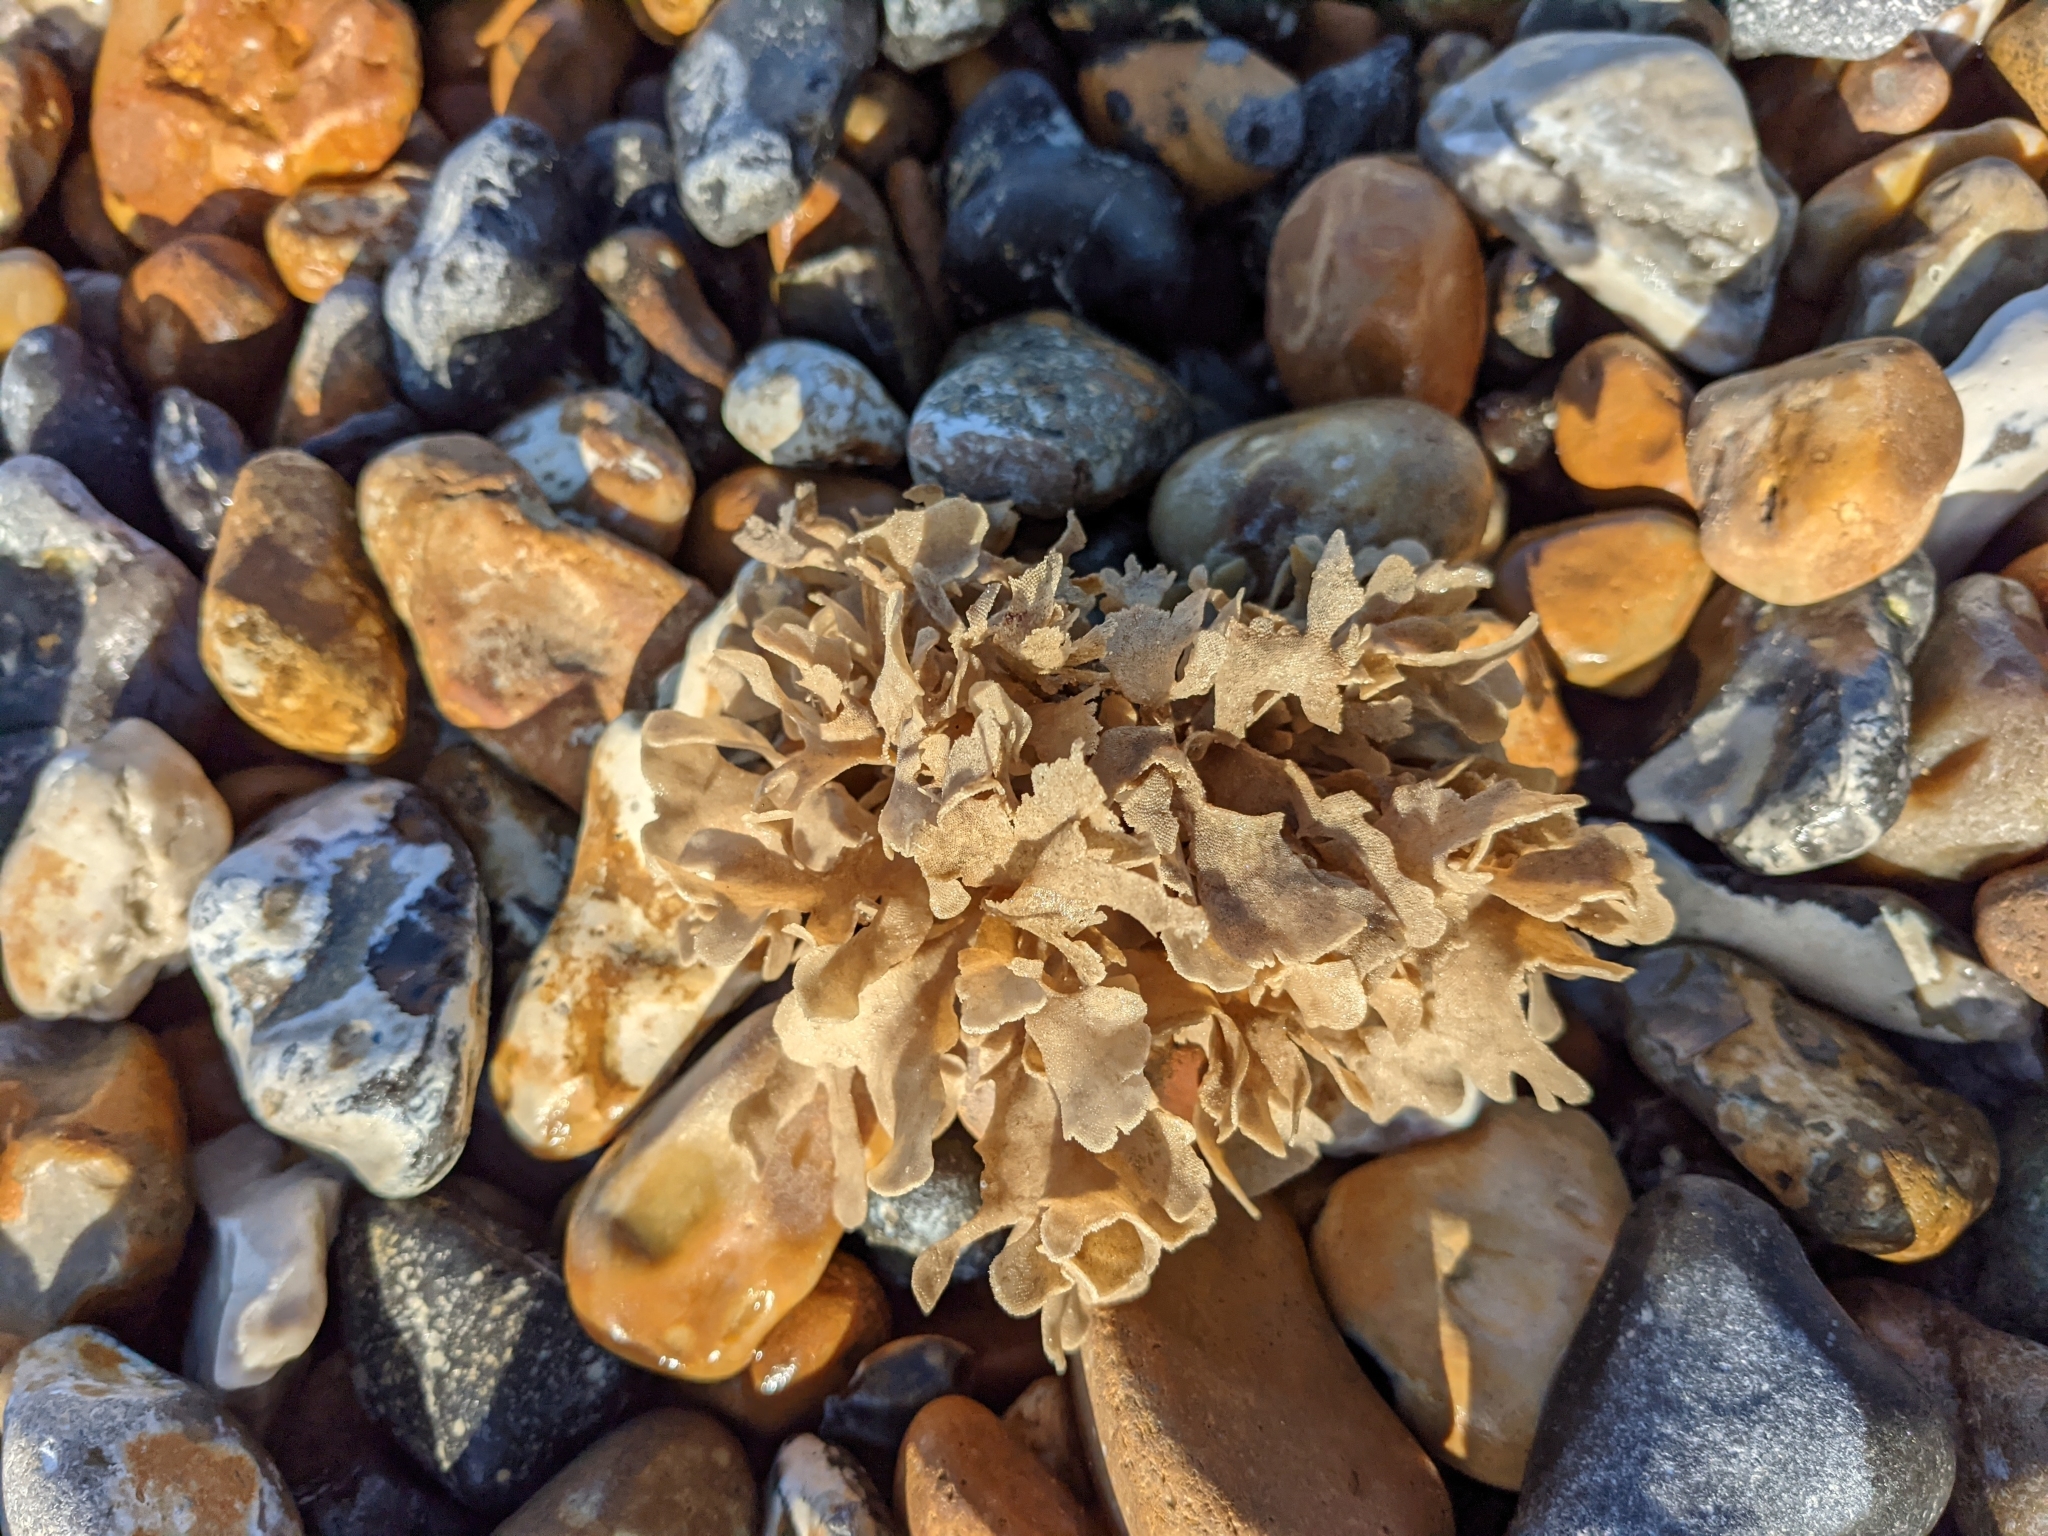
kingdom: Animalia
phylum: Bryozoa
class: Gymnolaemata
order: Cheilostomatida
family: Flustridae
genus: Flustra
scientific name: Flustra foliacea
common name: Hornwrack
